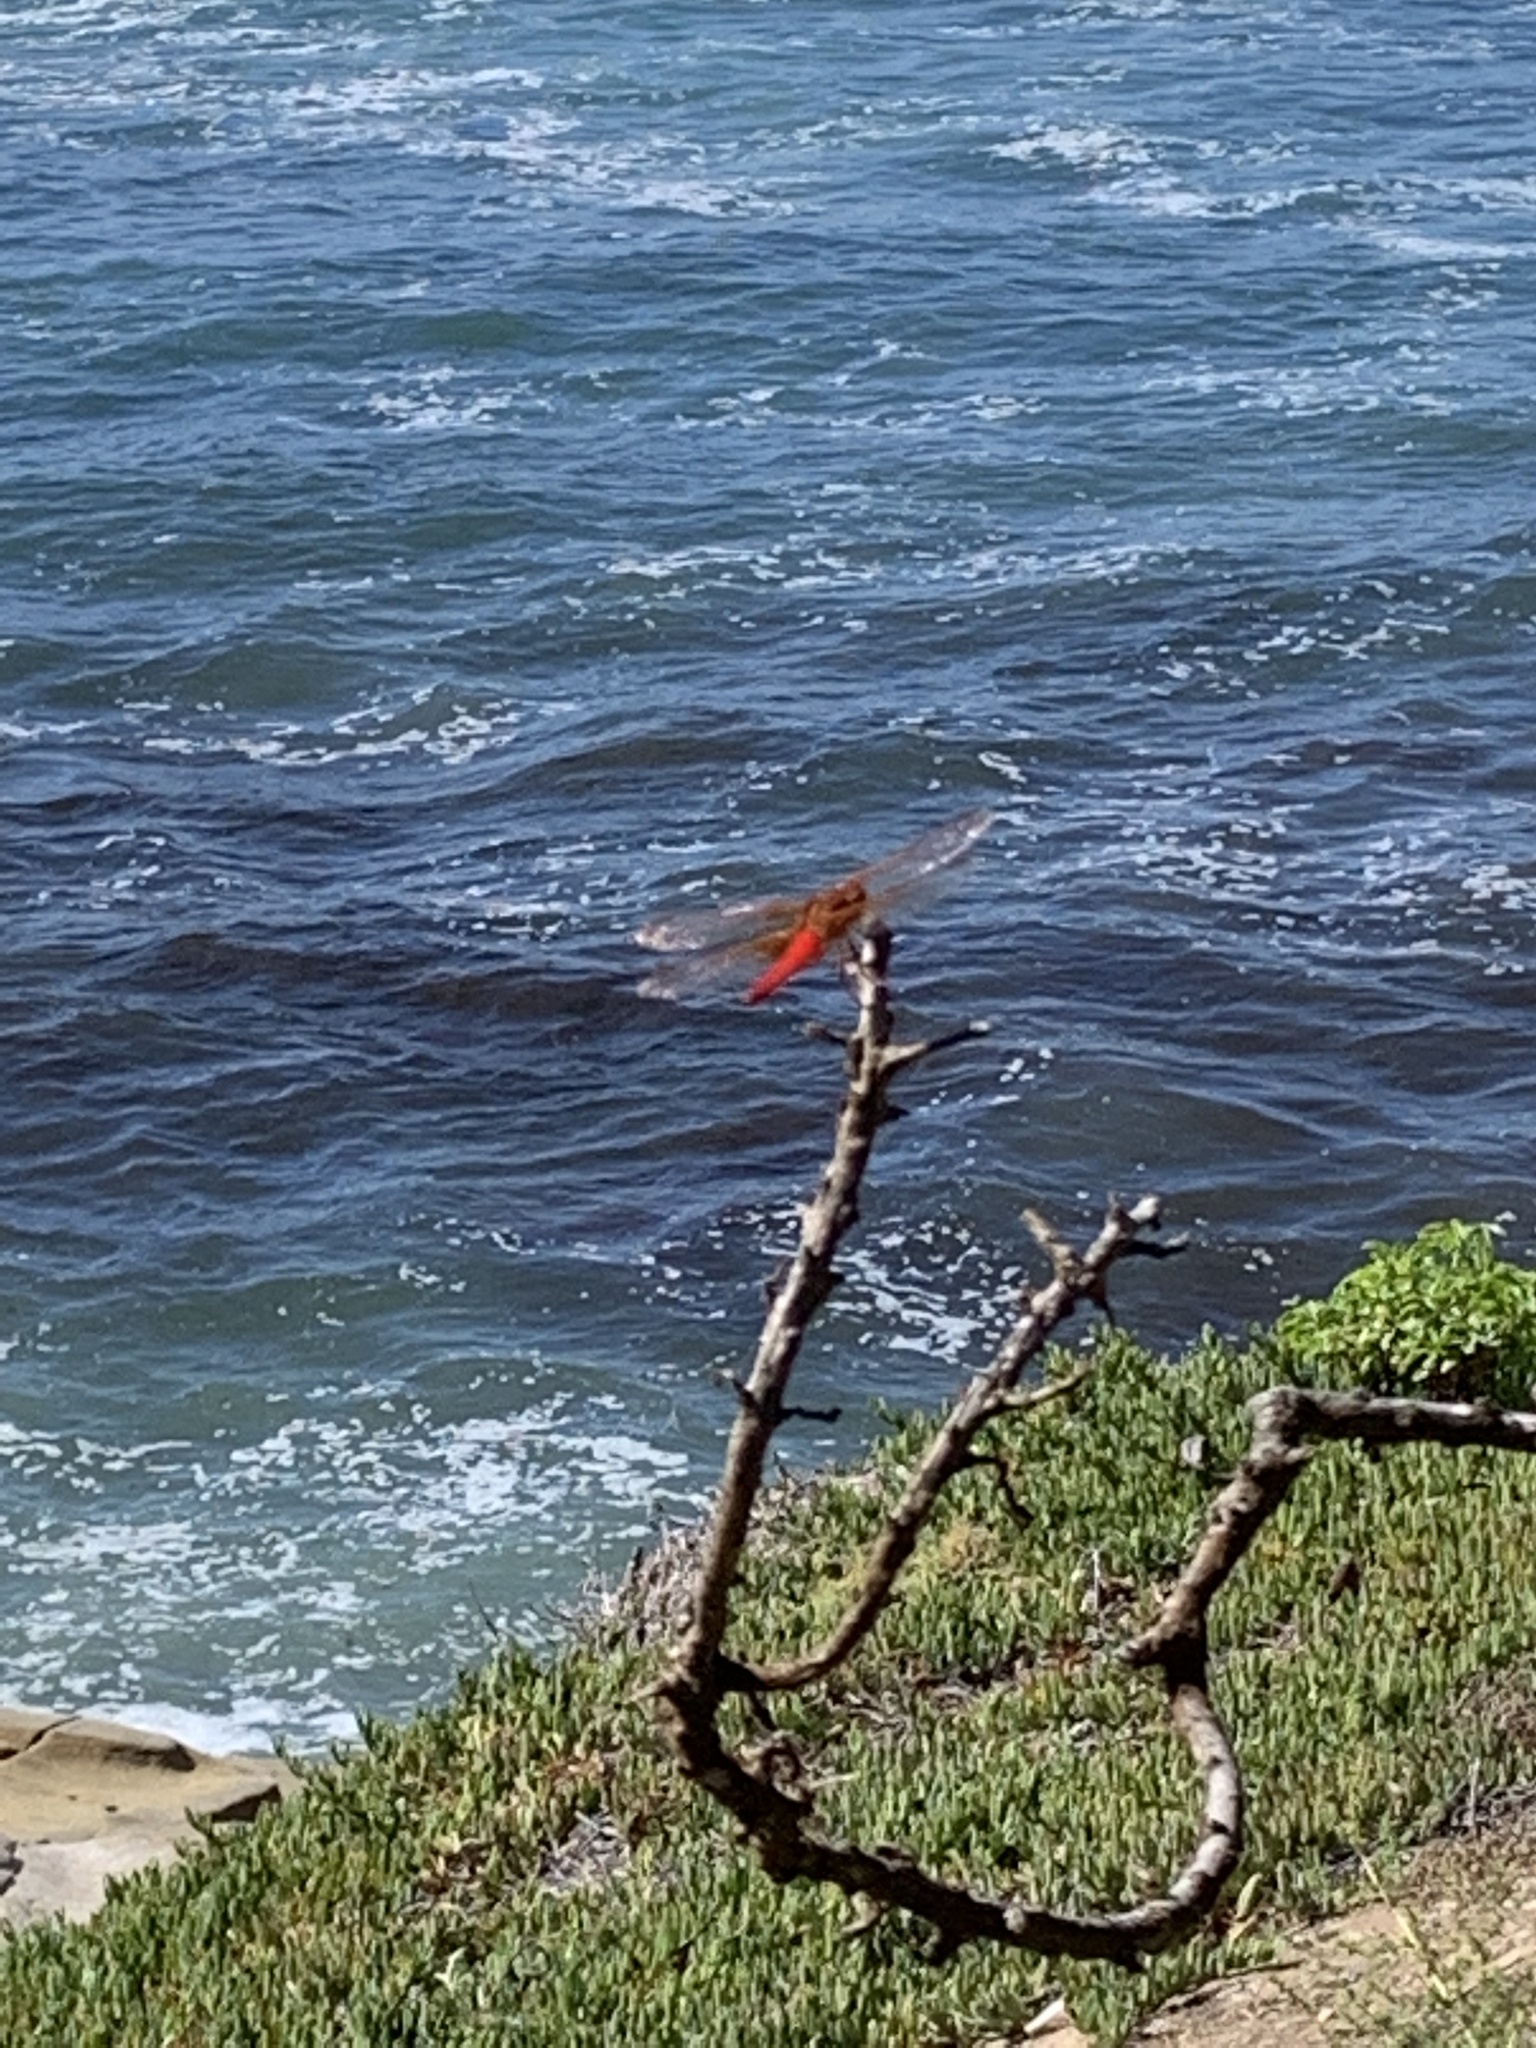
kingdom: Animalia
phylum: Arthropoda
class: Insecta
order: Odonata
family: Libellulidae
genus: Libellula
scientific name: Libellula croceipennis
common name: Neon skimmer
